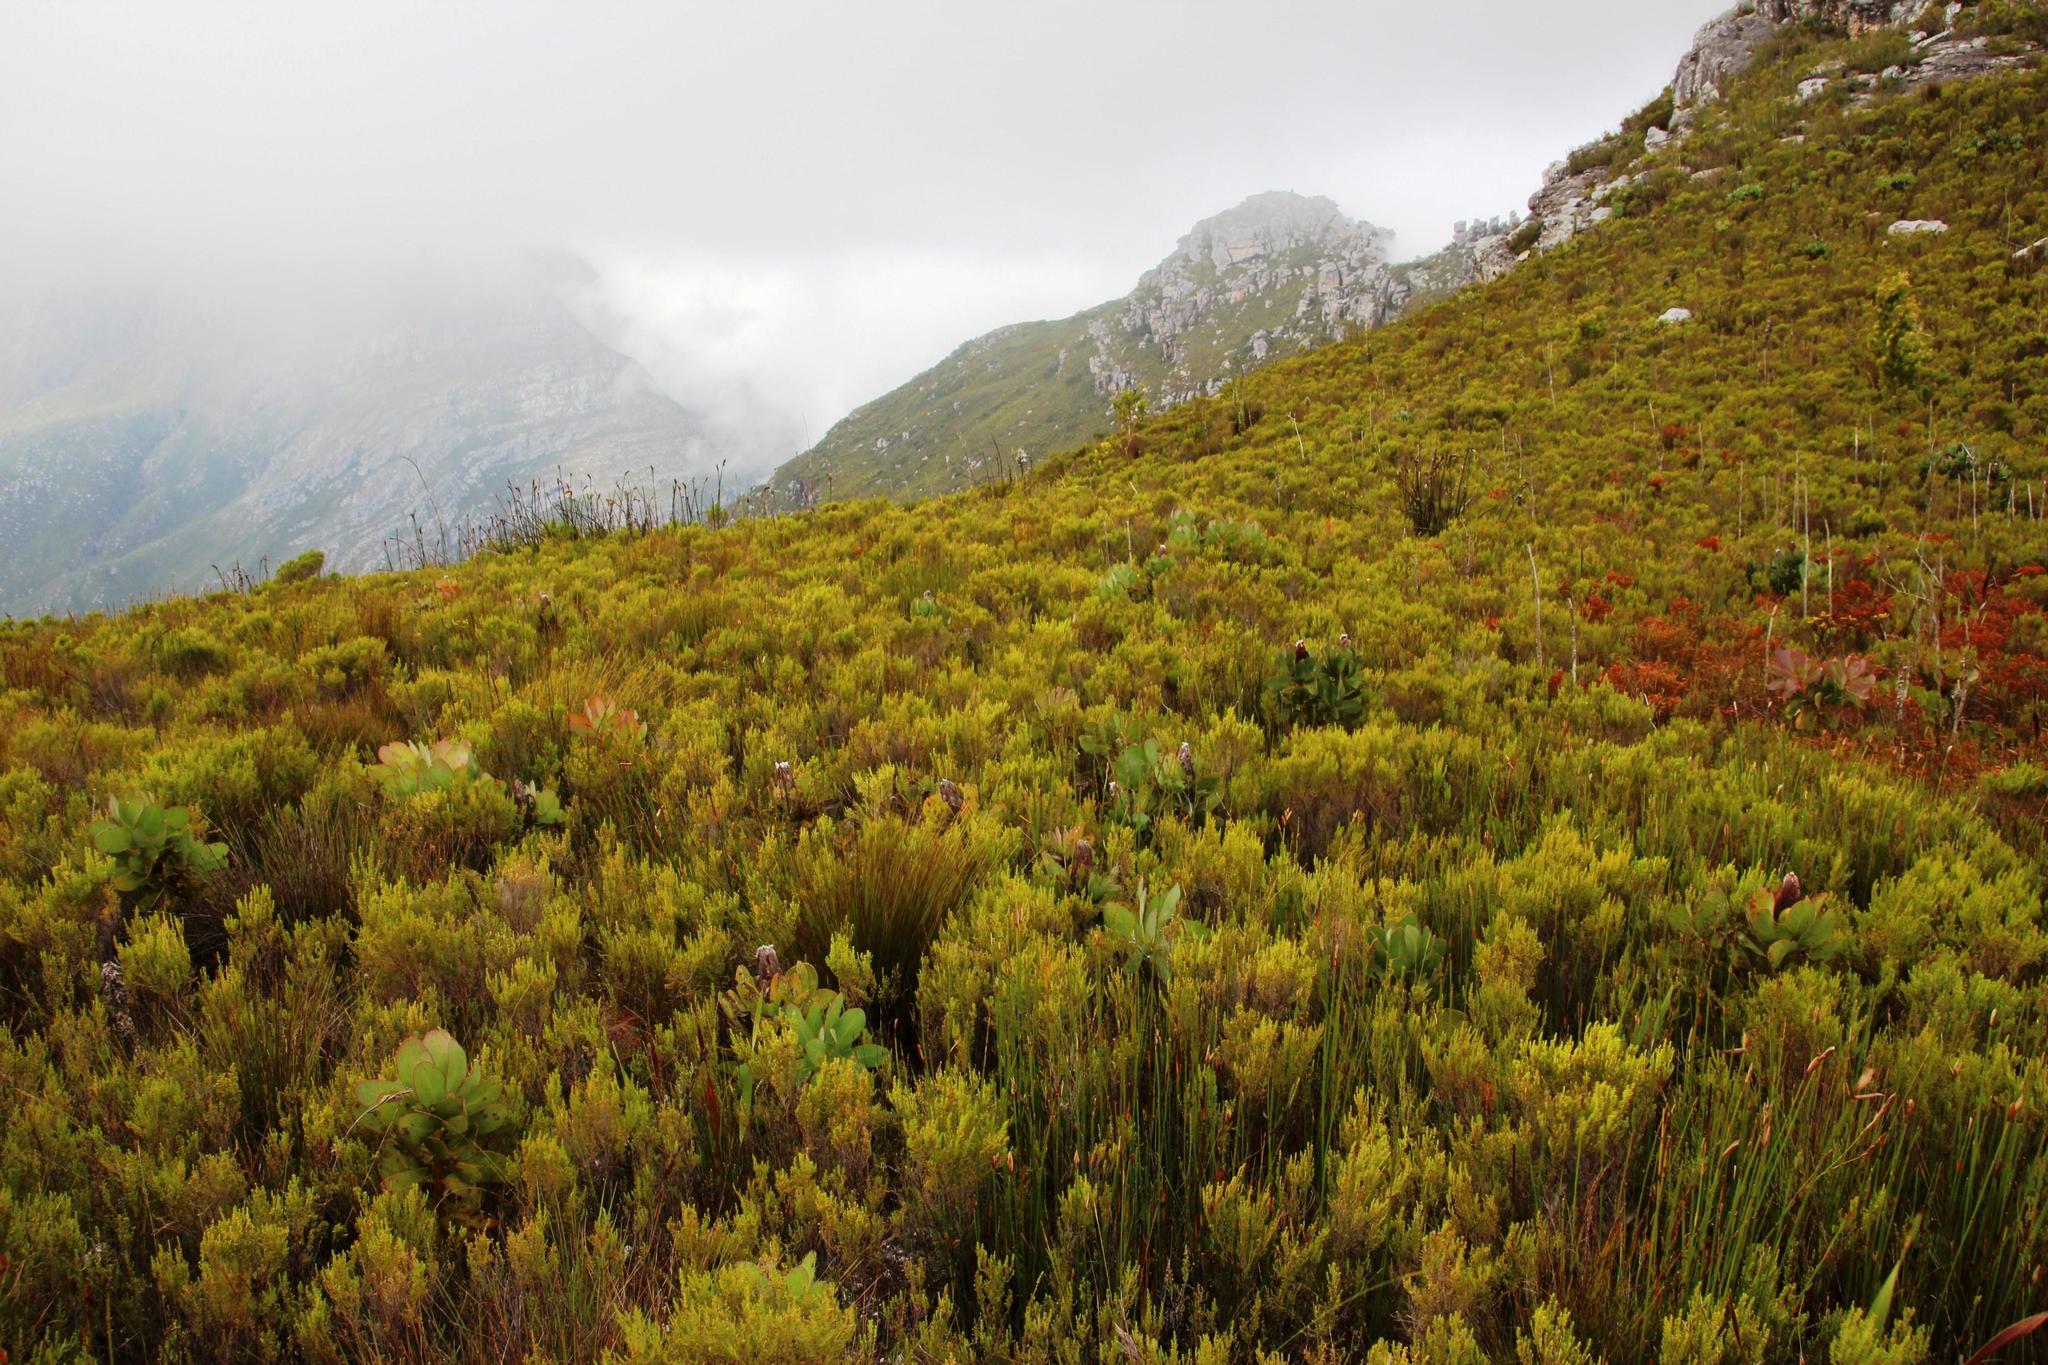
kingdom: Plantae
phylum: Tracheophyta
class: Magnoliopsida
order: Proteales
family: Proteaceae
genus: Protea
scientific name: Protea grandiceps
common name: Red sugarbush
